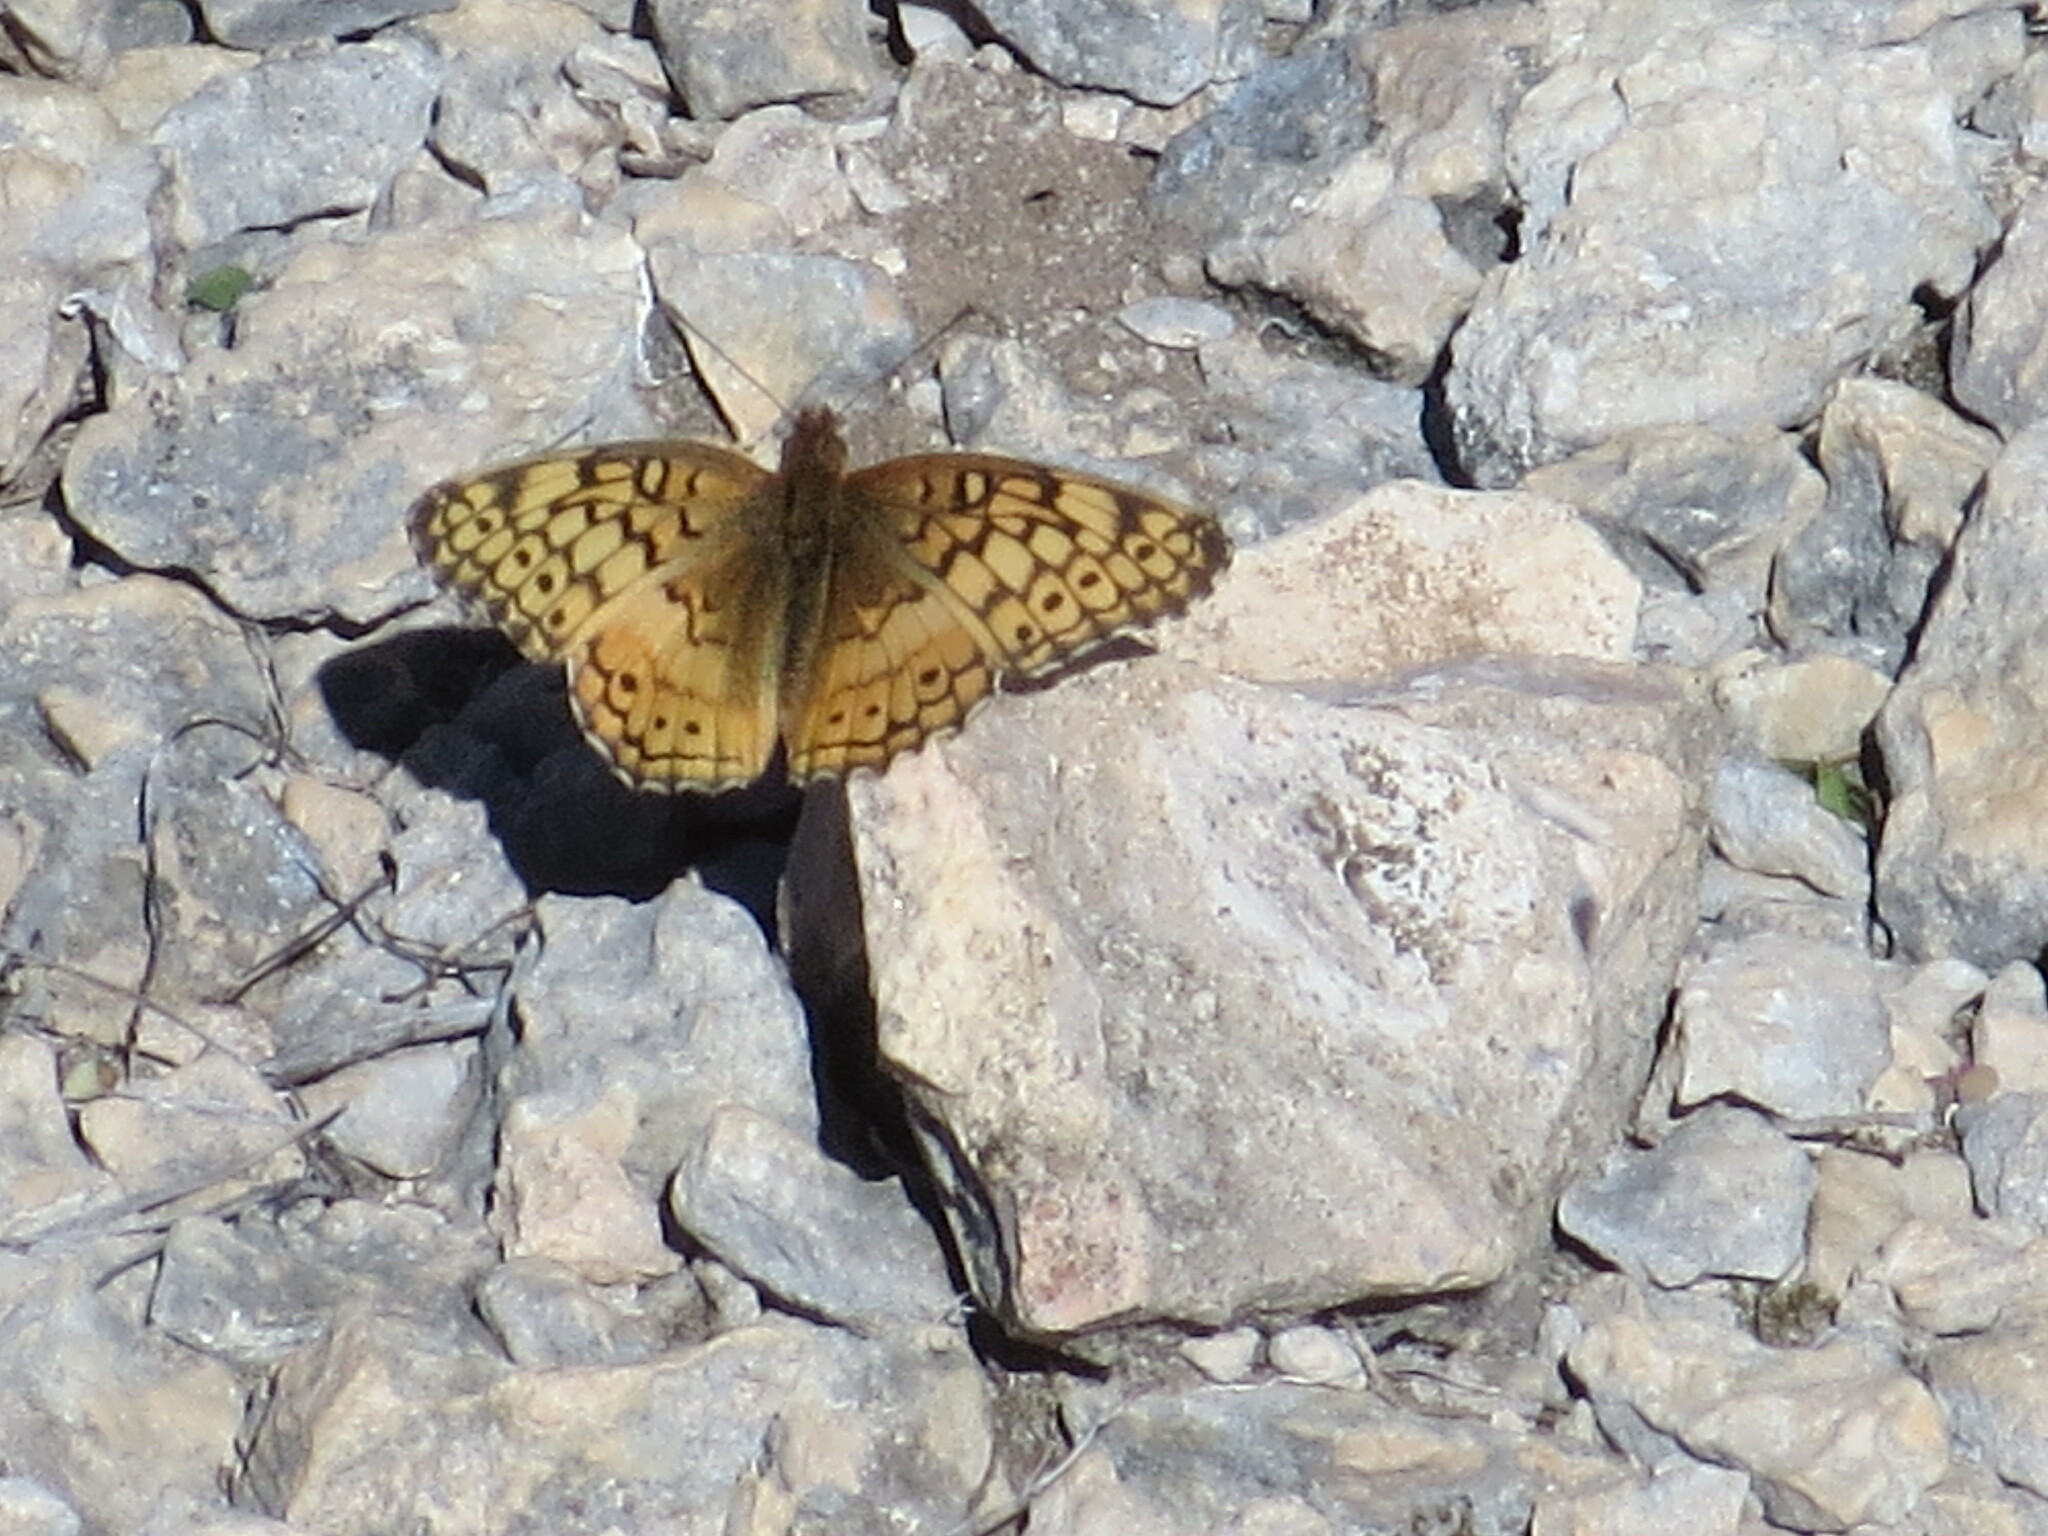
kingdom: Animalia
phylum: Arthropoda
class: Insecta
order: Lepidoptera
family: Nymphalidae
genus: Euptoieta
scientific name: Euptoieta claudia
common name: Variegated fritillary
